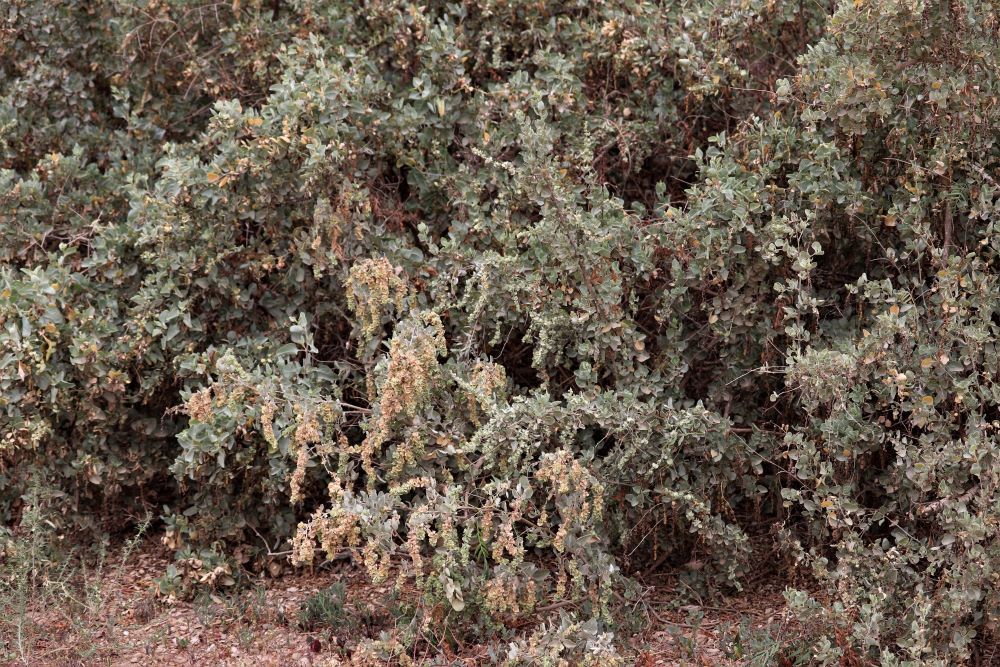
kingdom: Plantae
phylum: Tracheophyta
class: Magnoliopsida
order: Caryophyllales
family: Amaranthaceae
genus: Atriplex
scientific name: Atriplex nummularia
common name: Bluegreen saltbush
